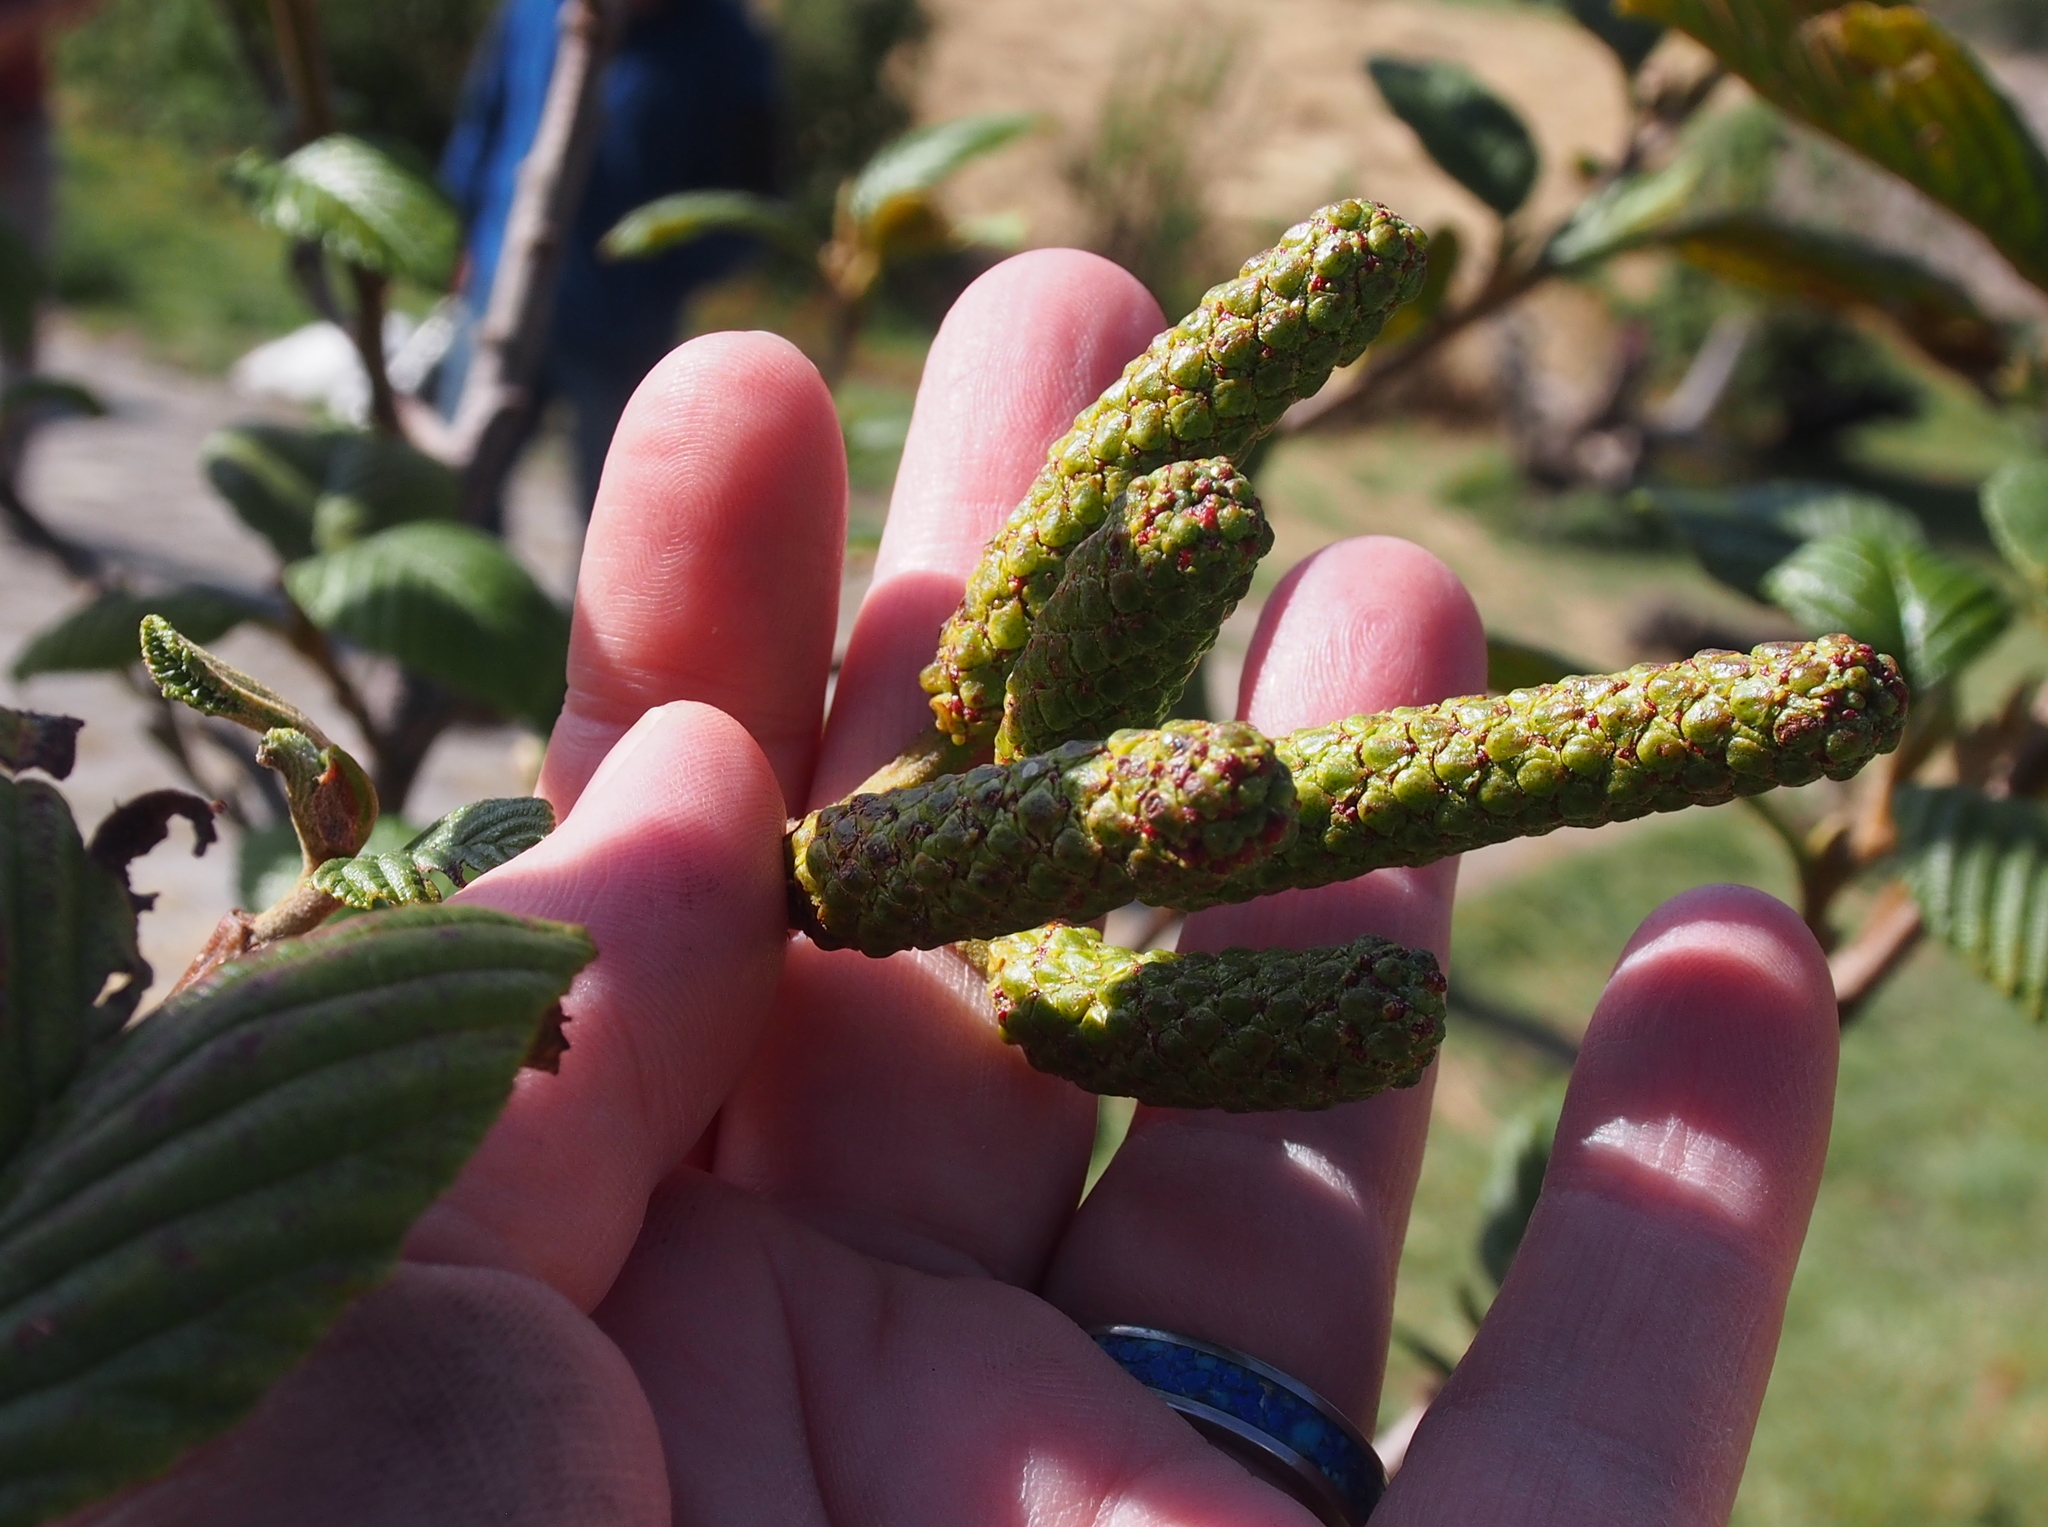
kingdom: Plantae
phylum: Tracheophyta
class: Magnoliopsida
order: Fagales
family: Betulaceae
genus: Alnus
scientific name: Alnus acuminata
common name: Alder
